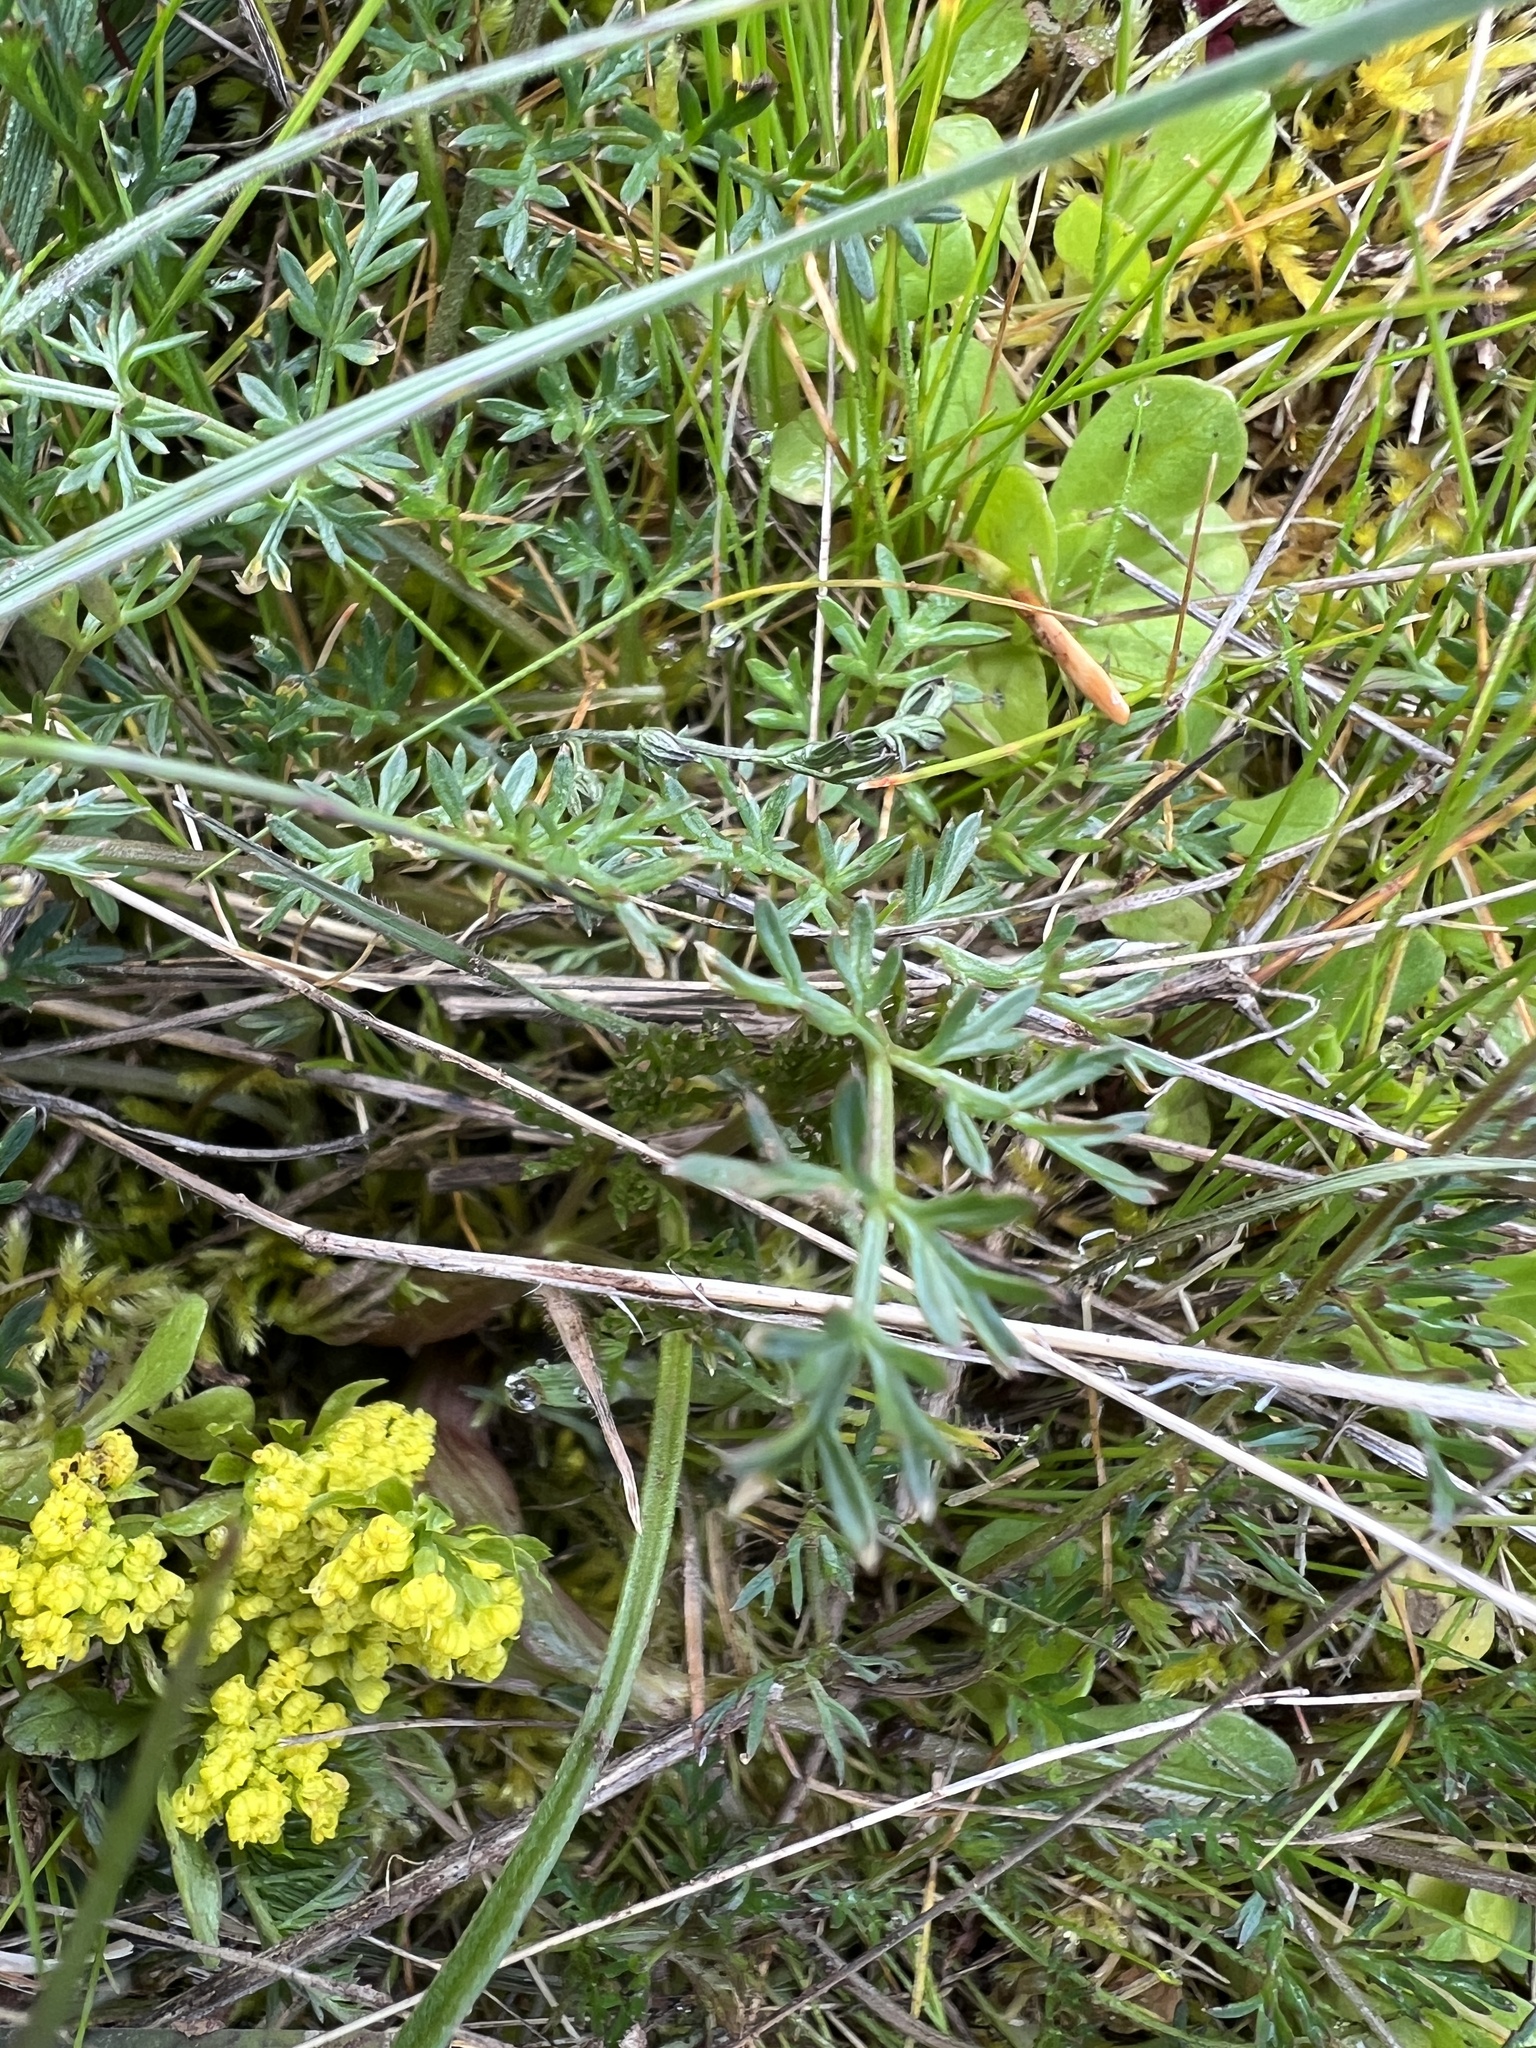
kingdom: Plantae
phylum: Tracheophyta
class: Magnoliopsida
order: Apiales
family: Apiaceae
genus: Lomatium
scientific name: Lomatium utriculatum
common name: Fine-leaf desert-parsley
